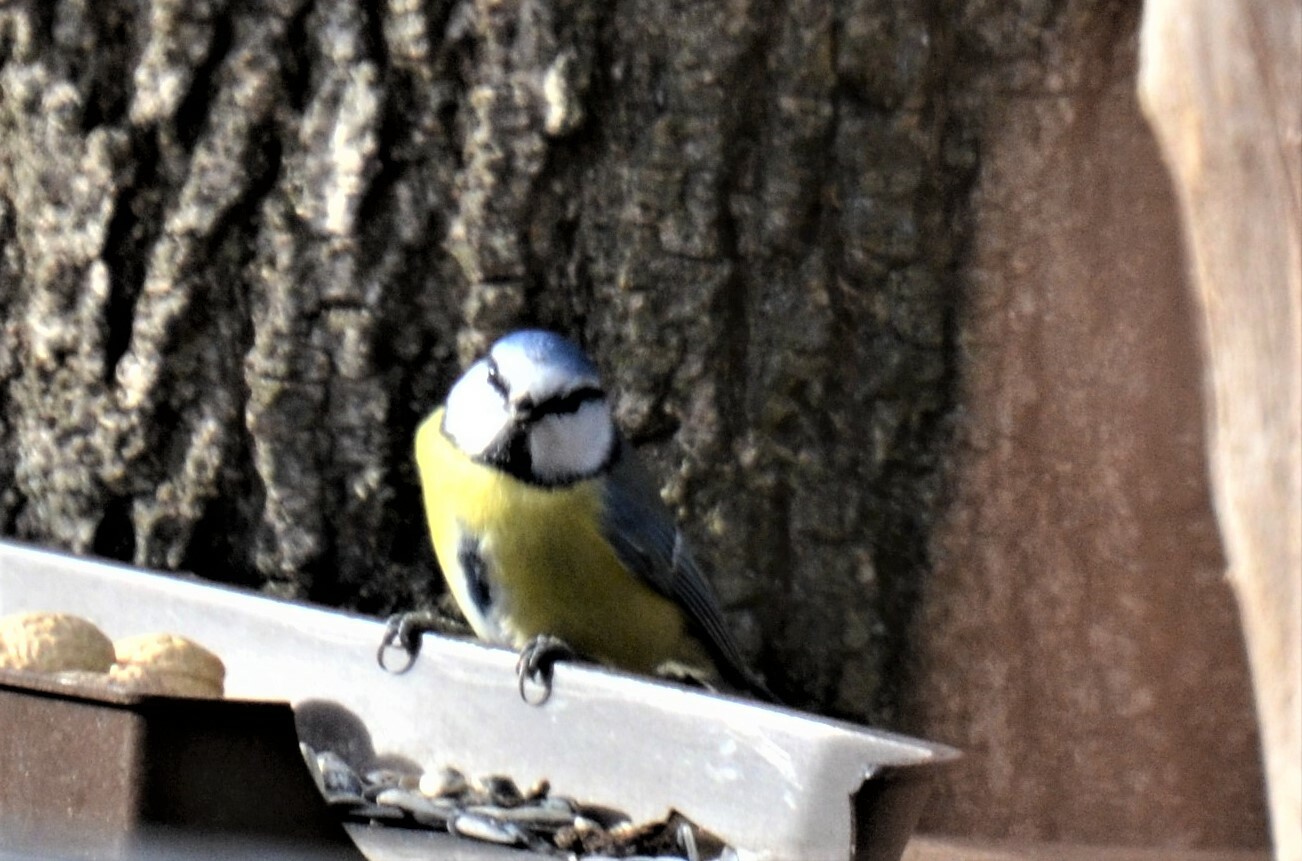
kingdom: Animalia
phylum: Chordata
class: Aves
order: Passeriformes
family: Paridae
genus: Cyanistes
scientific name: Cyanistes caeruleus
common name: Eurasian blue tit
